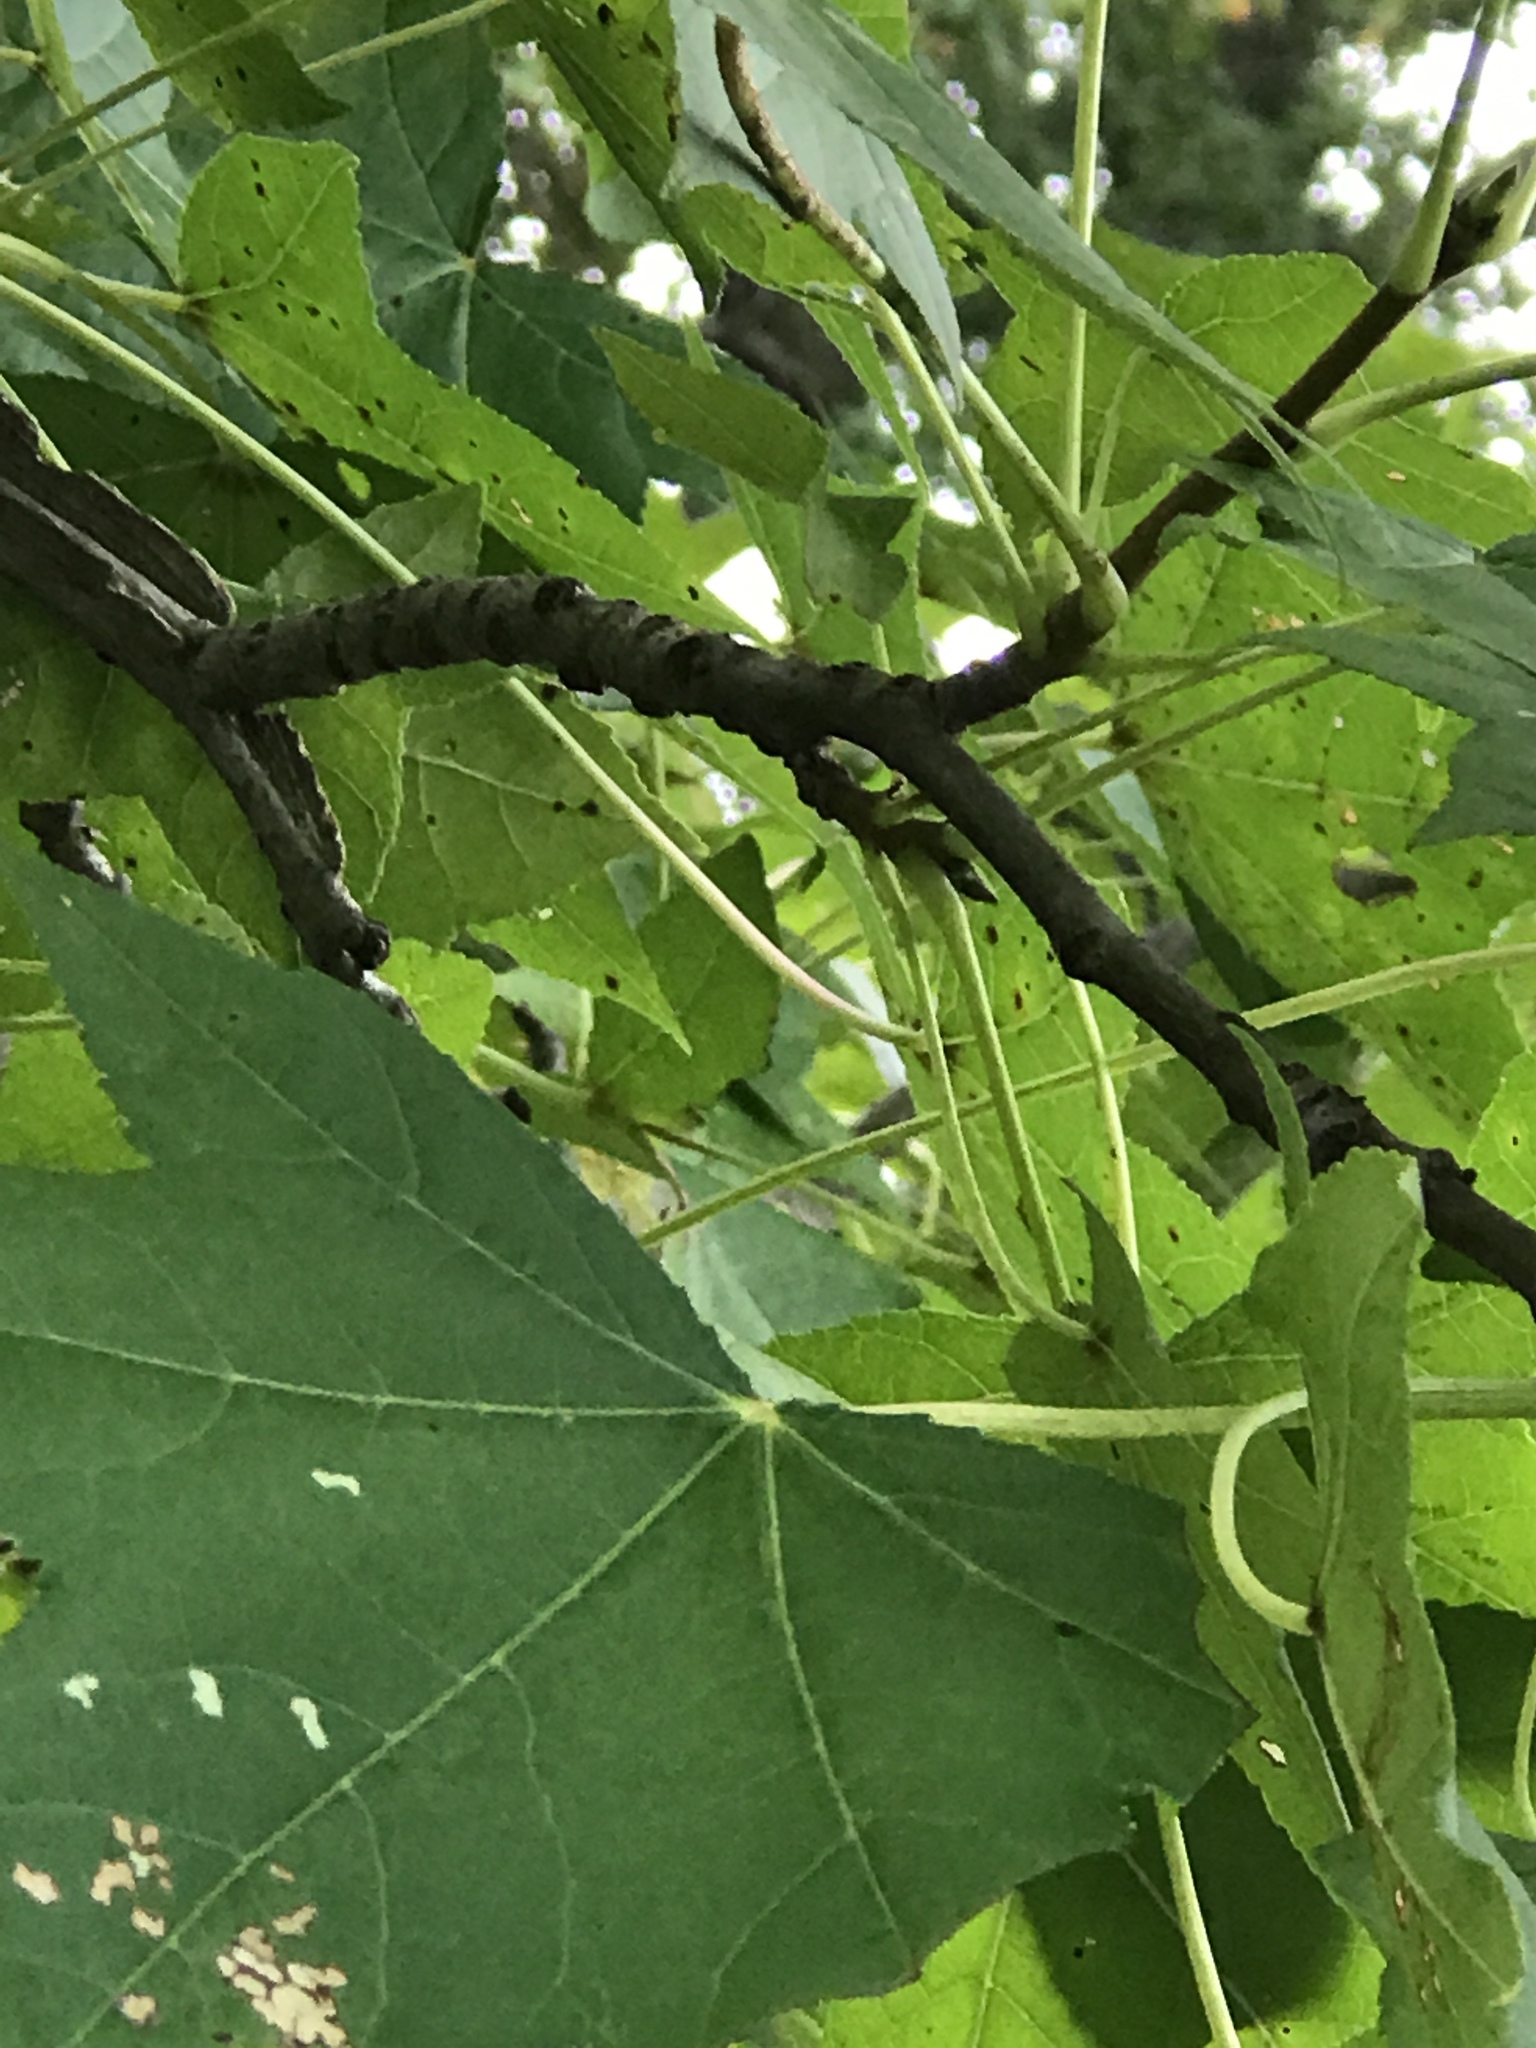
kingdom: Plantae
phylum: Tracheophyta
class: Magnoliopsida
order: Saxifragales
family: Altingiaceae
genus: Liquidambar
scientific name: Liquidambar styraciflua
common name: Sweet gum
